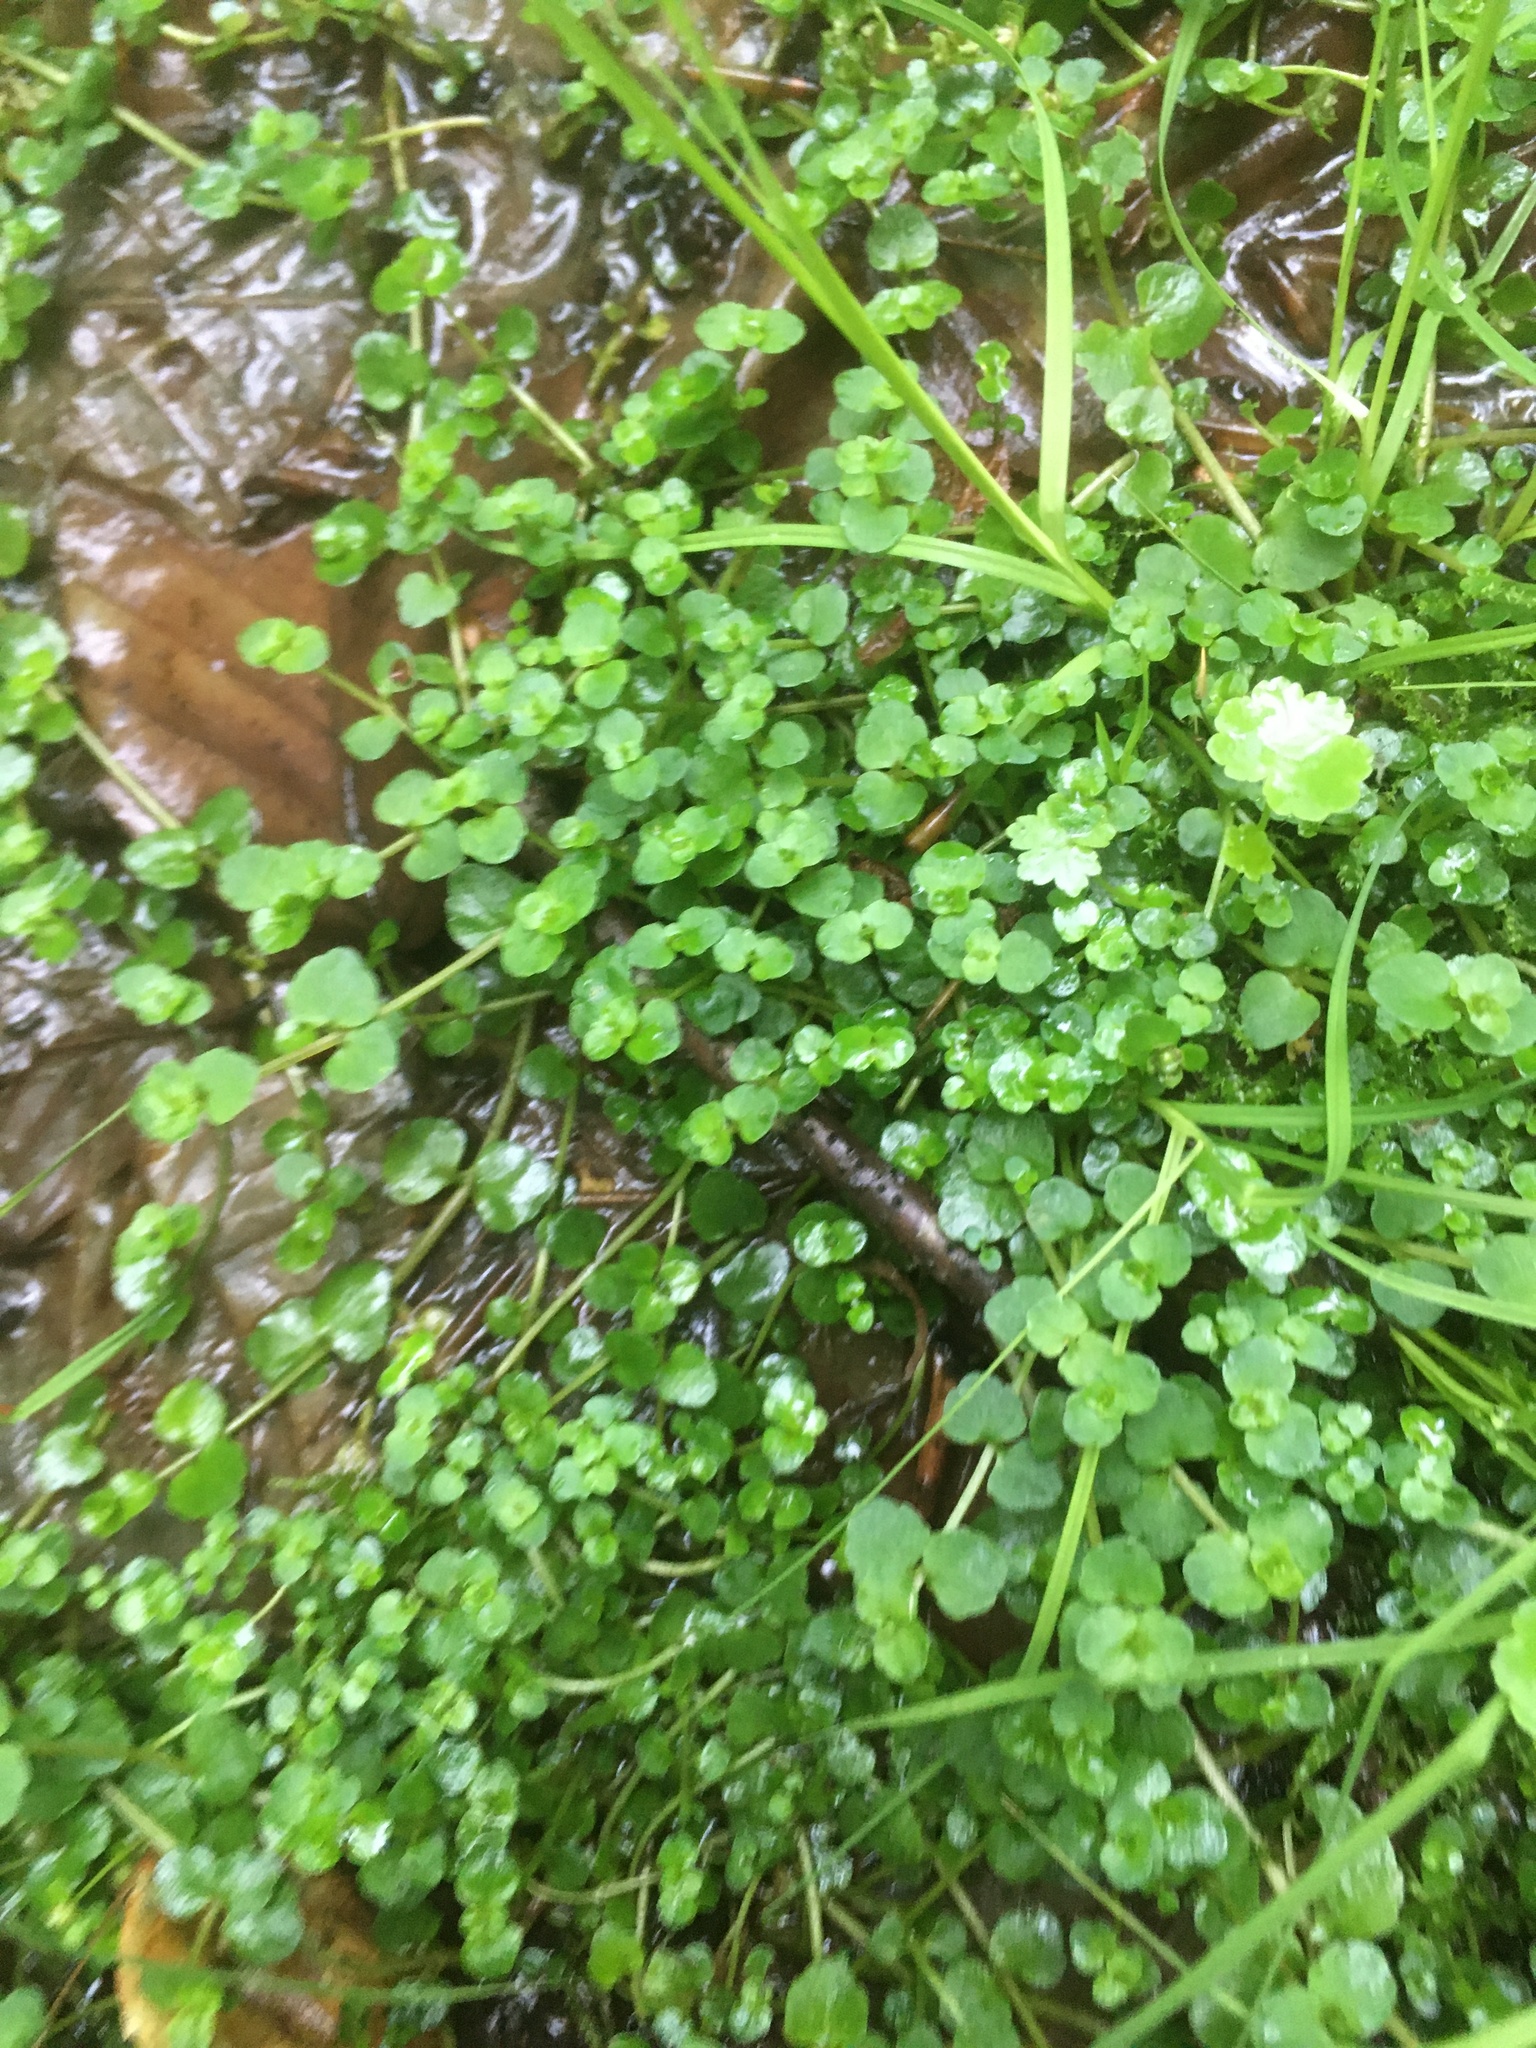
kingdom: Plantae
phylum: Tracheophyta
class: Magnoliopsida
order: Saxifragales
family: Saxifragaceae
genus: Chrysosplenium
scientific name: Chrysosplenium americanum
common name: American golden-saxifrage
